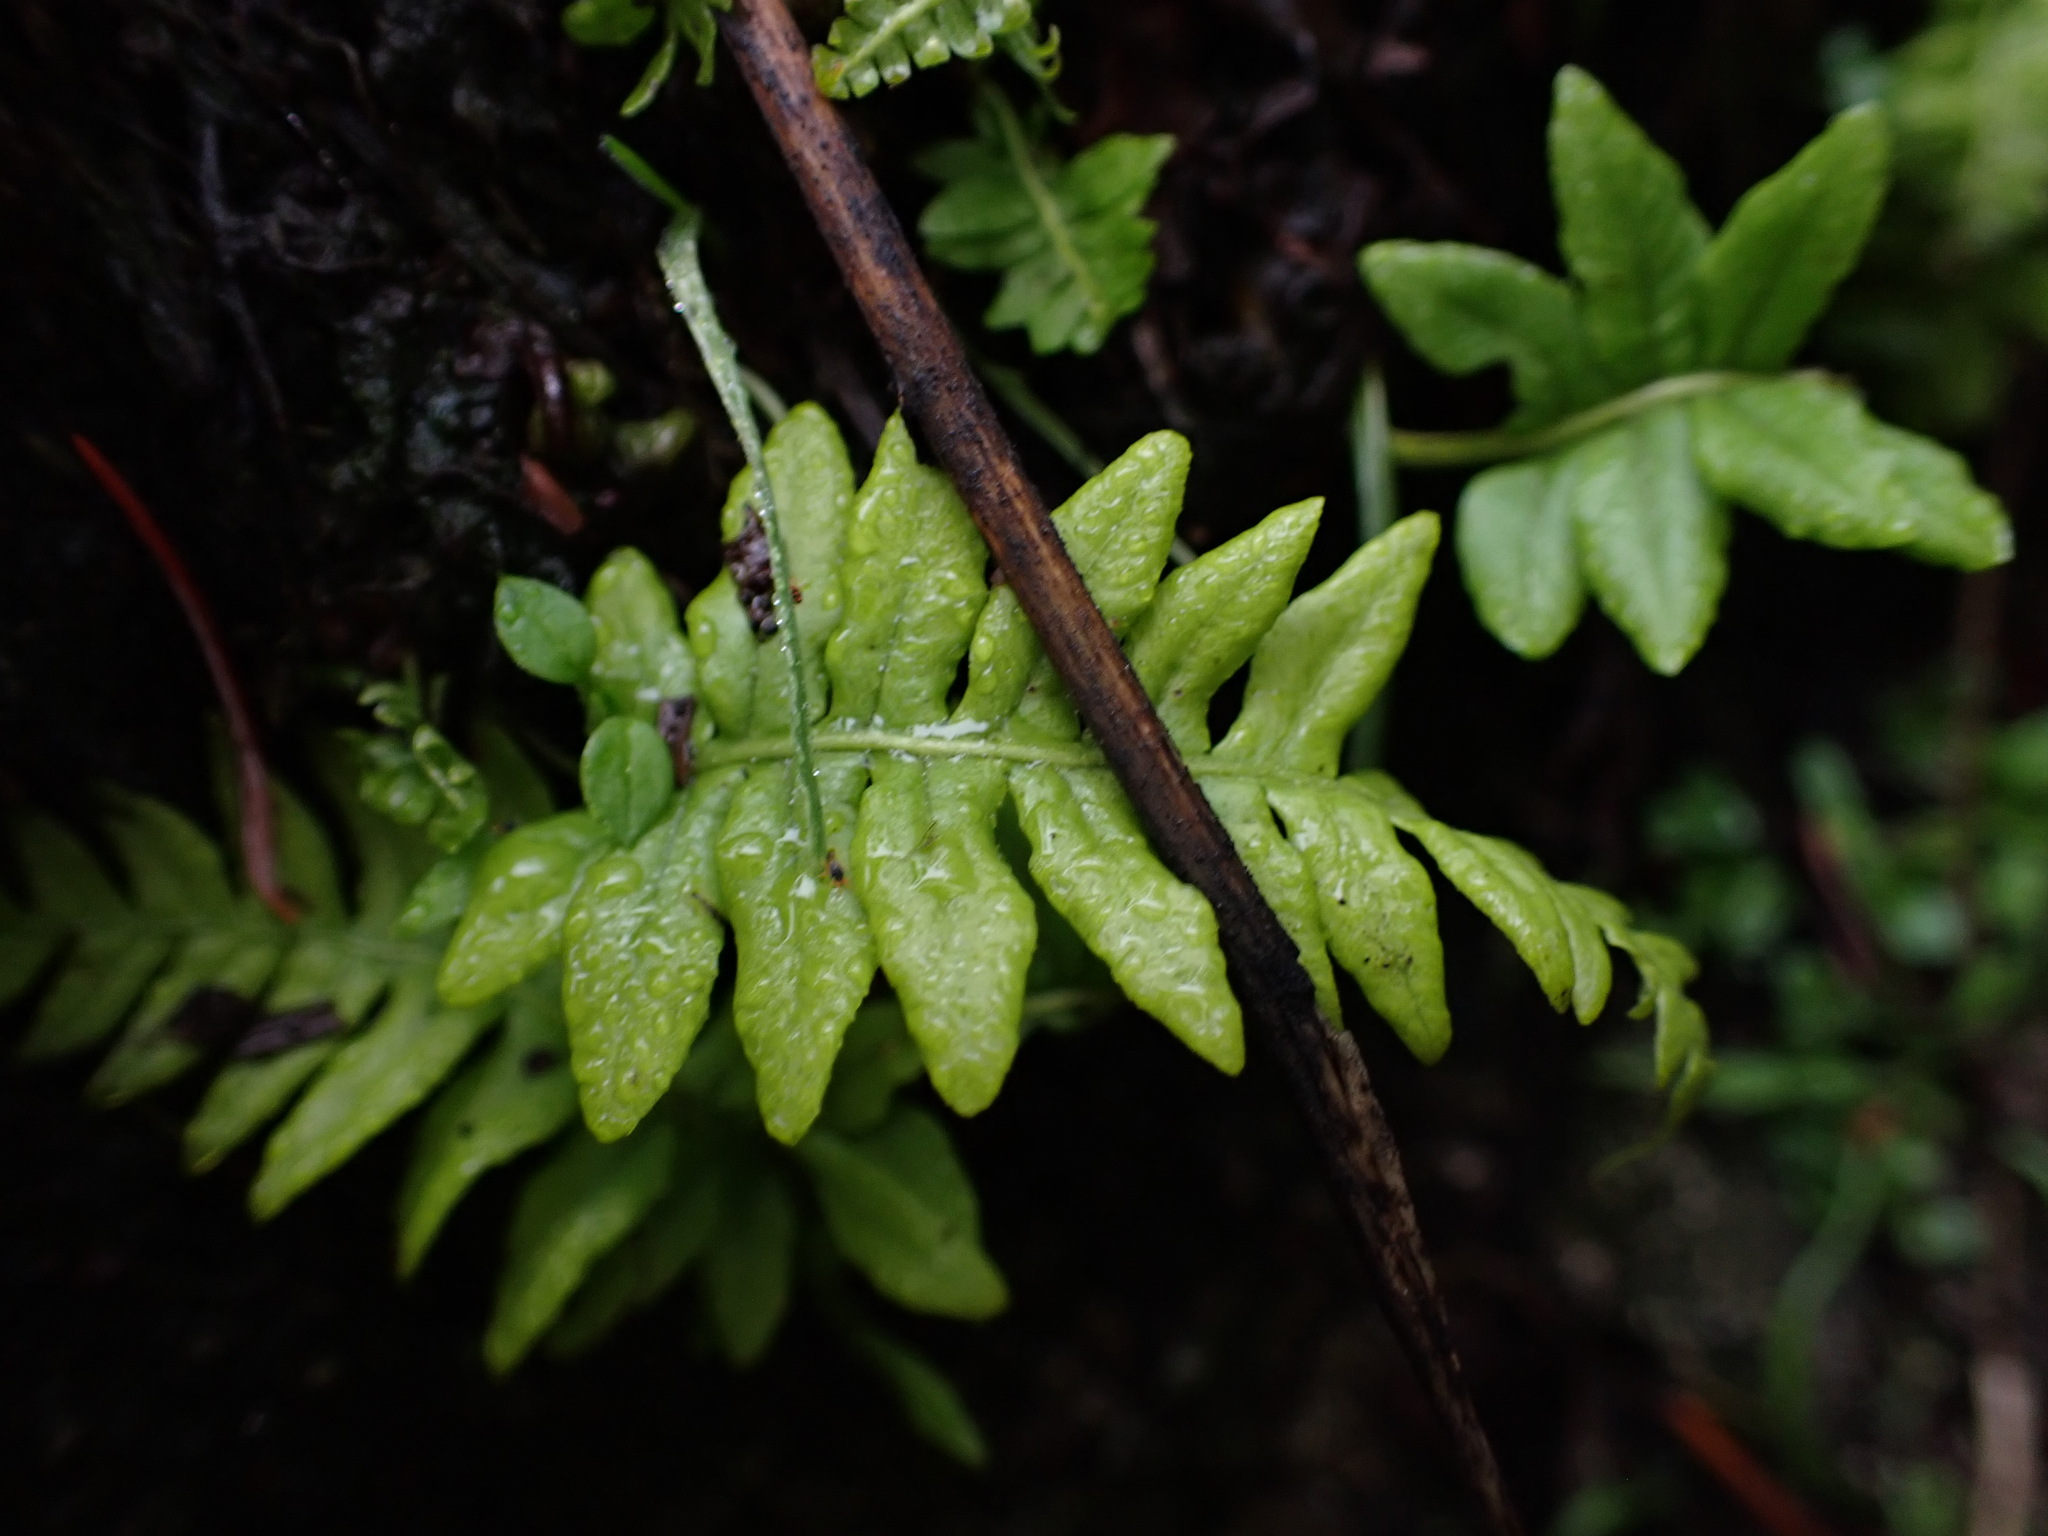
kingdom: Plantae
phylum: Tracheophyta
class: Polypodiopsida
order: Polypodiales
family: Polypodiaceae
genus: Polypodium
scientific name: Polypodium glycyrrhiza
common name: Licorice fern
